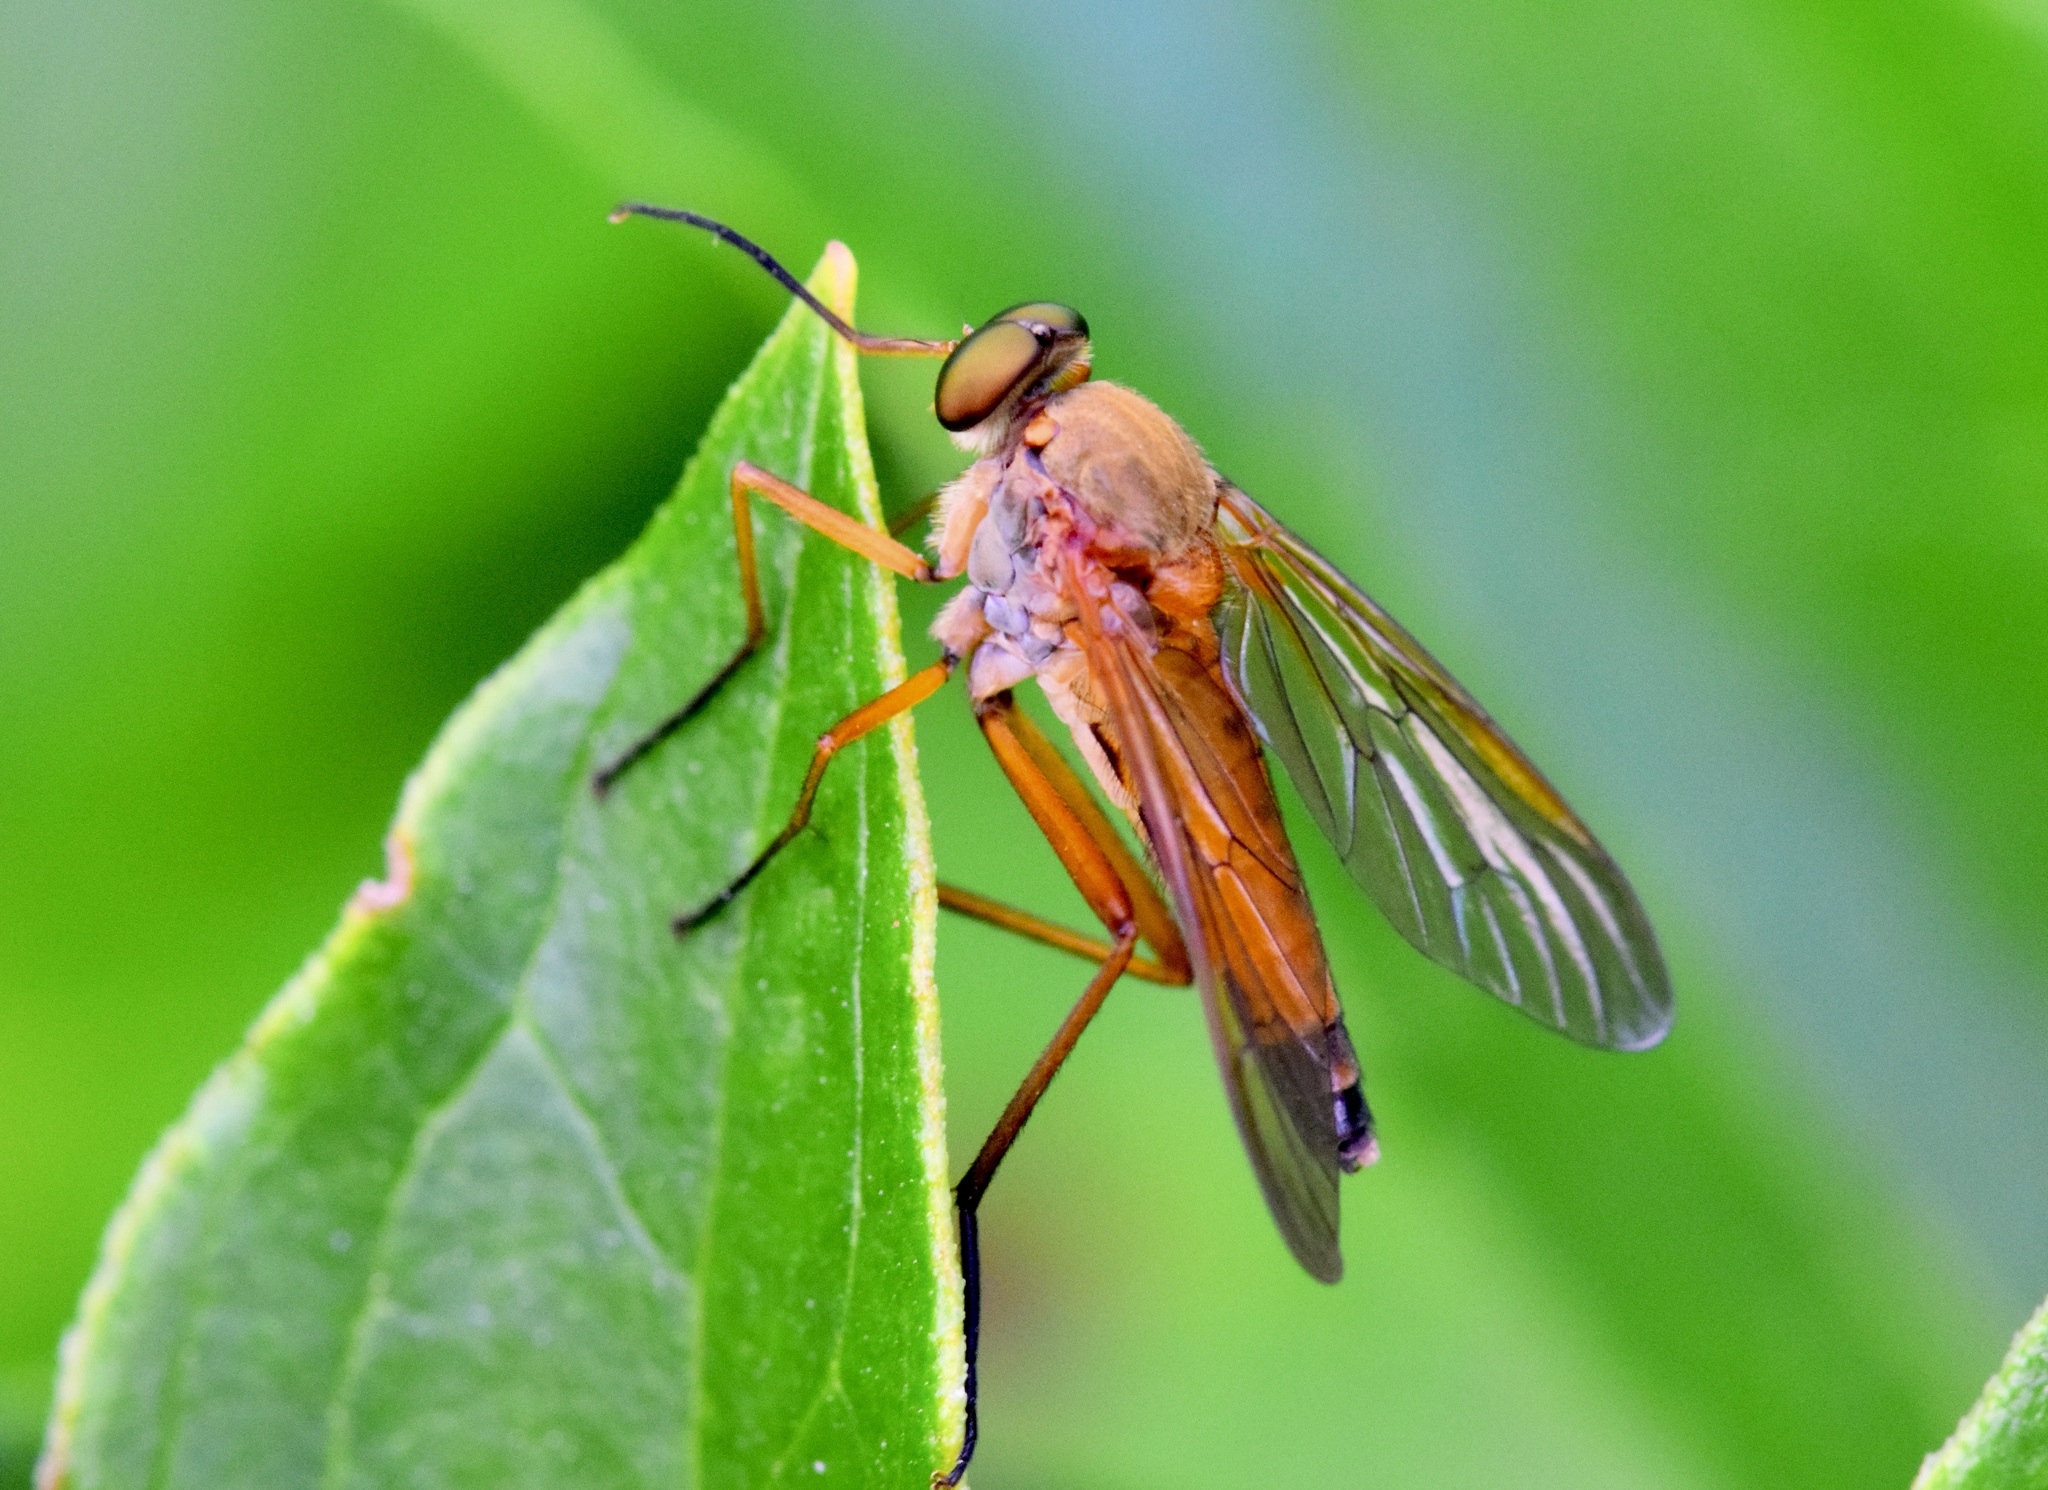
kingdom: Animalia
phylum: Arthropoda
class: Insecta
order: Diptera
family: Rhagionidae
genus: Rhagio
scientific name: Rhagio tringaria
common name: Marsh snipefly
